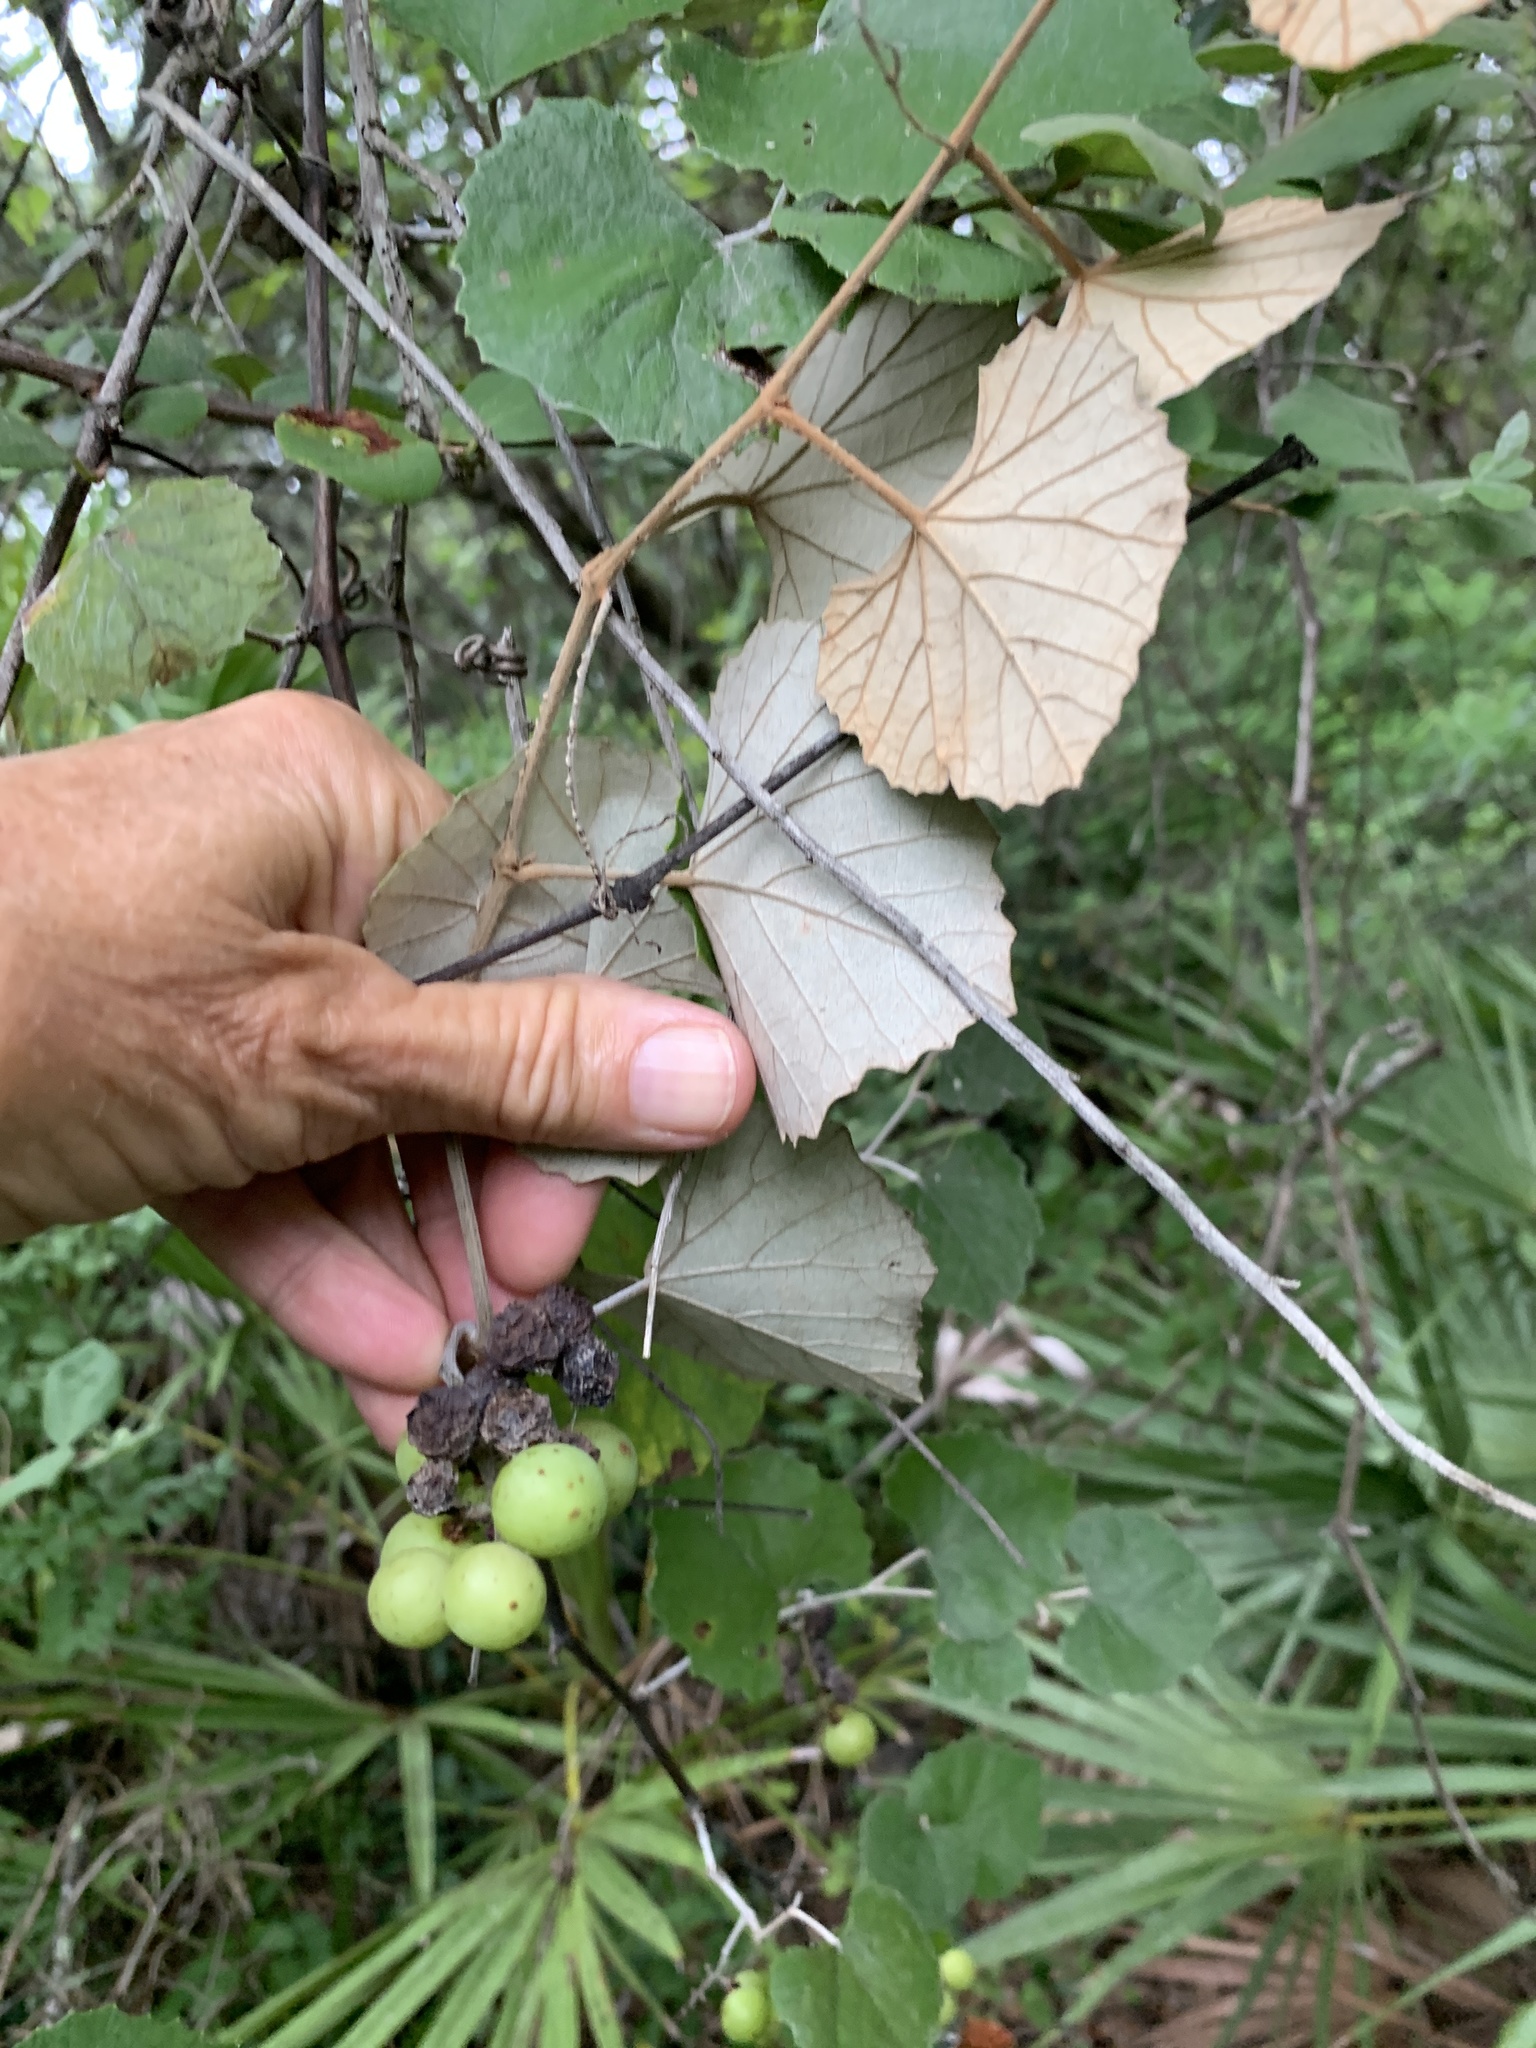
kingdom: Plantae
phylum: Tracheophyta
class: Magnoliopsida
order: Vitales
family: Vitaceae
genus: Vitis
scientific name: Vitis shuttleworthii
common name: Caloosa grape
